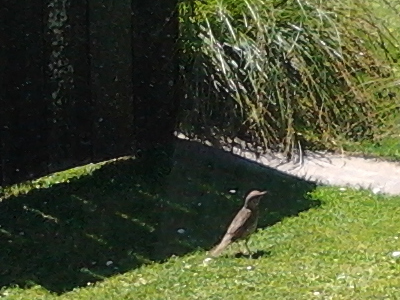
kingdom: Animalia
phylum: Chordata
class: Aves
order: Passeriformes
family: Turdidae
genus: Turdus
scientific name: Turdus philomelos
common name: Song thrush
